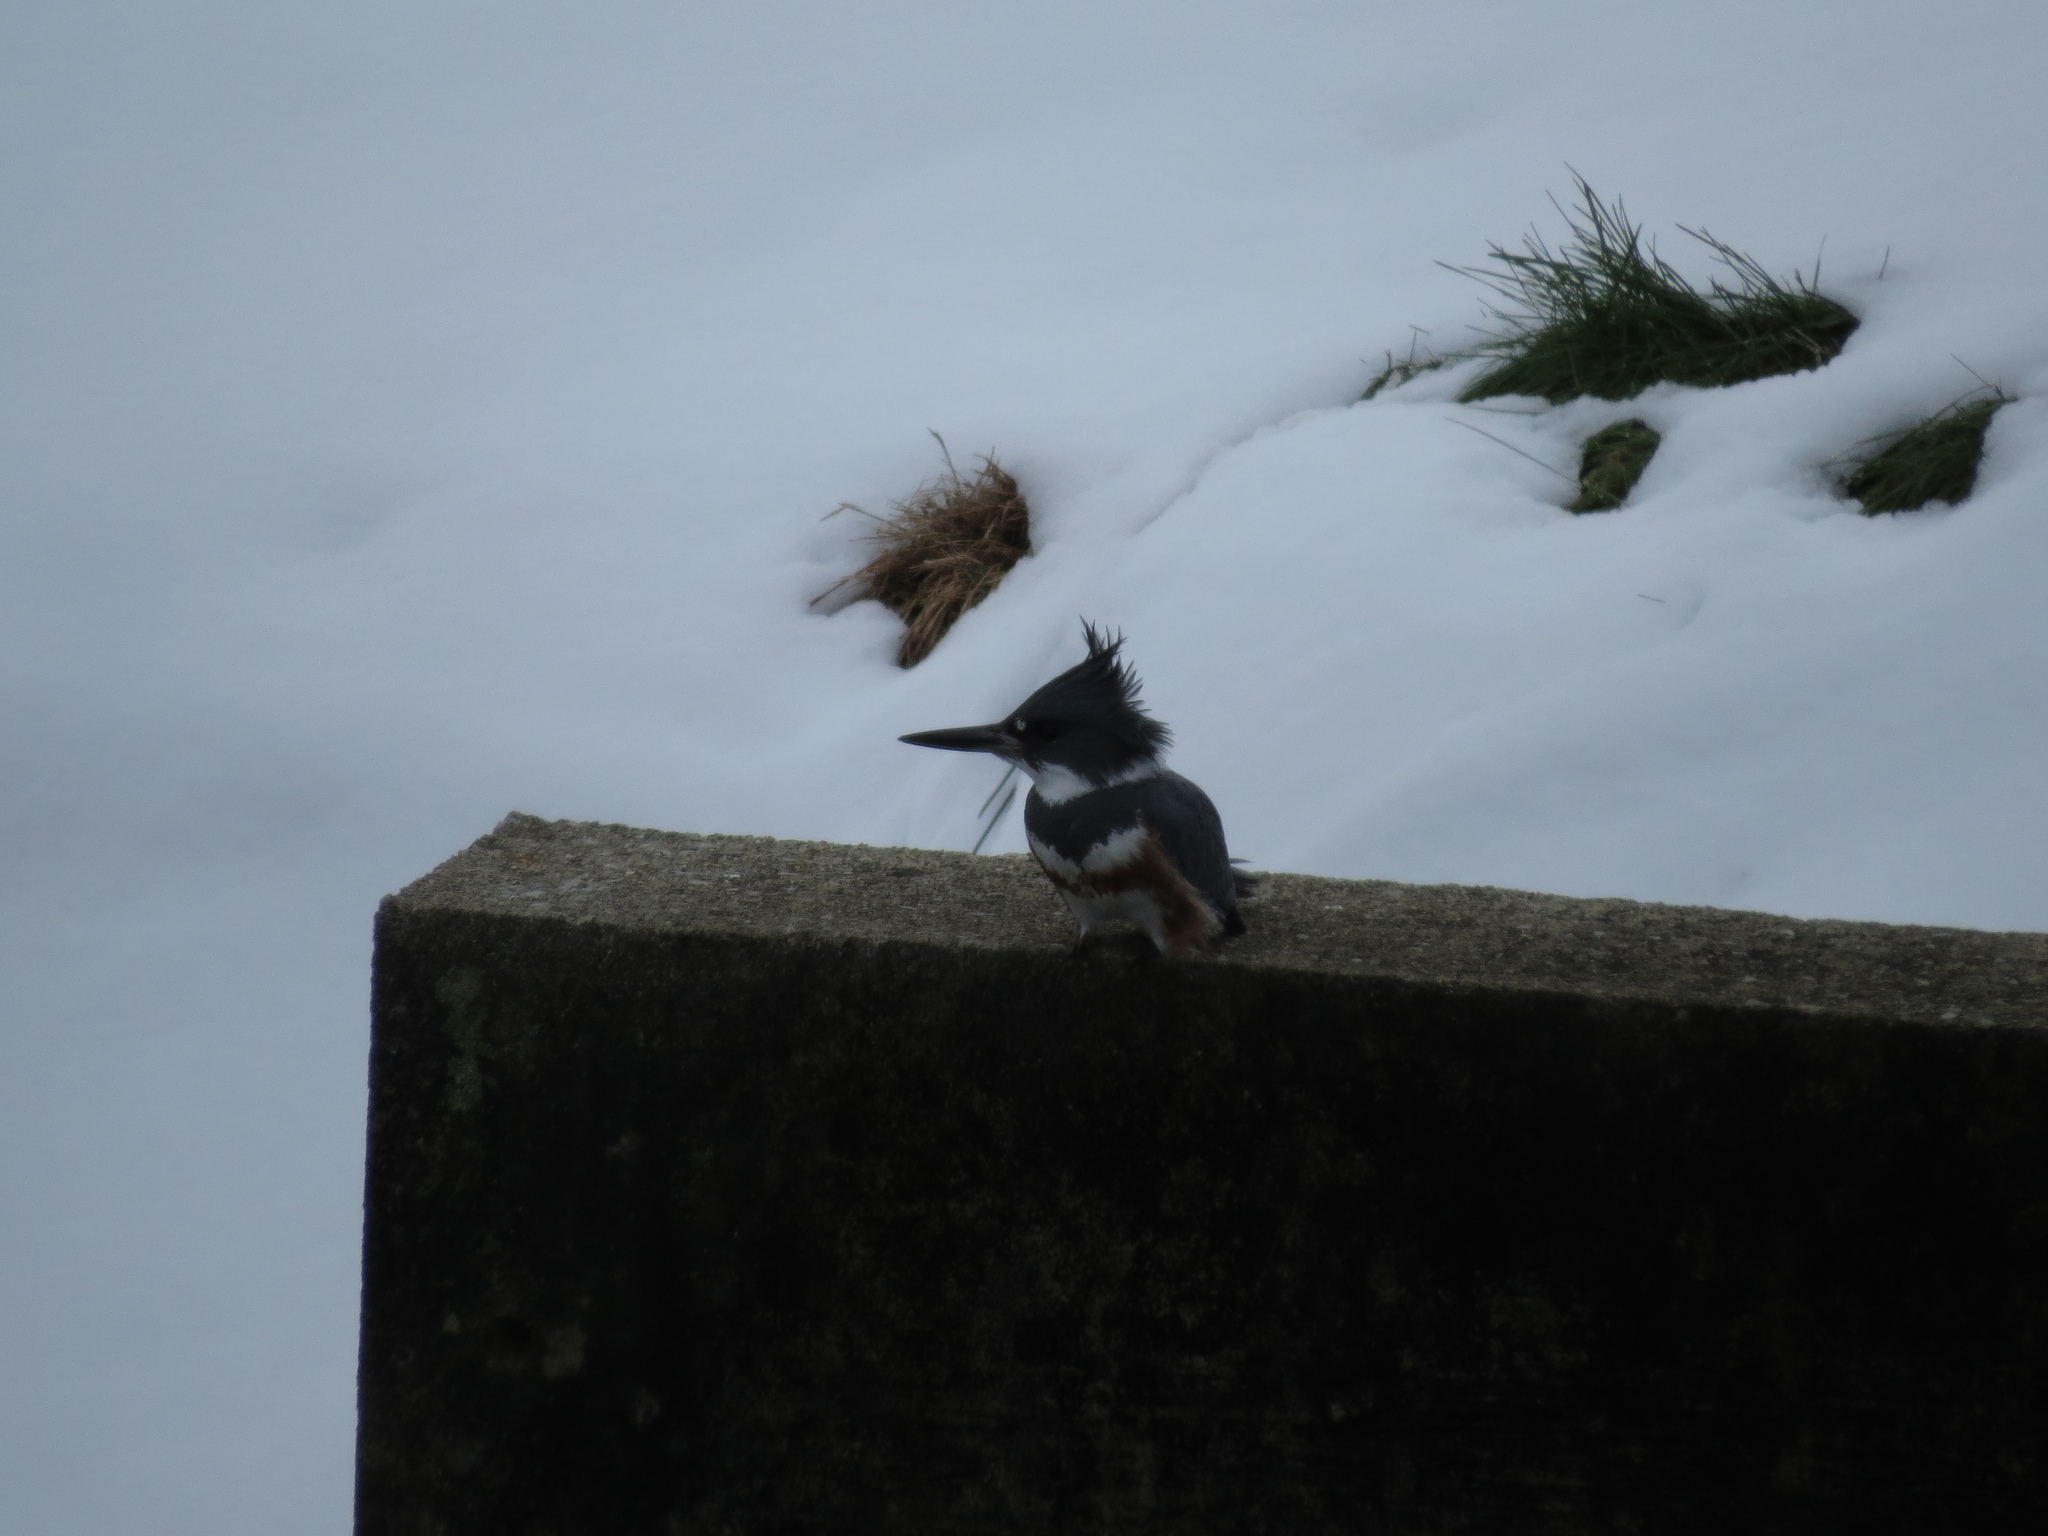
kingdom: Animalia
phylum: Chordata
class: Aves
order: Coraciiformes
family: Alcedinidae
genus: Megaceryle
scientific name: Megaceryle alcyon
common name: Belted kingfisher
